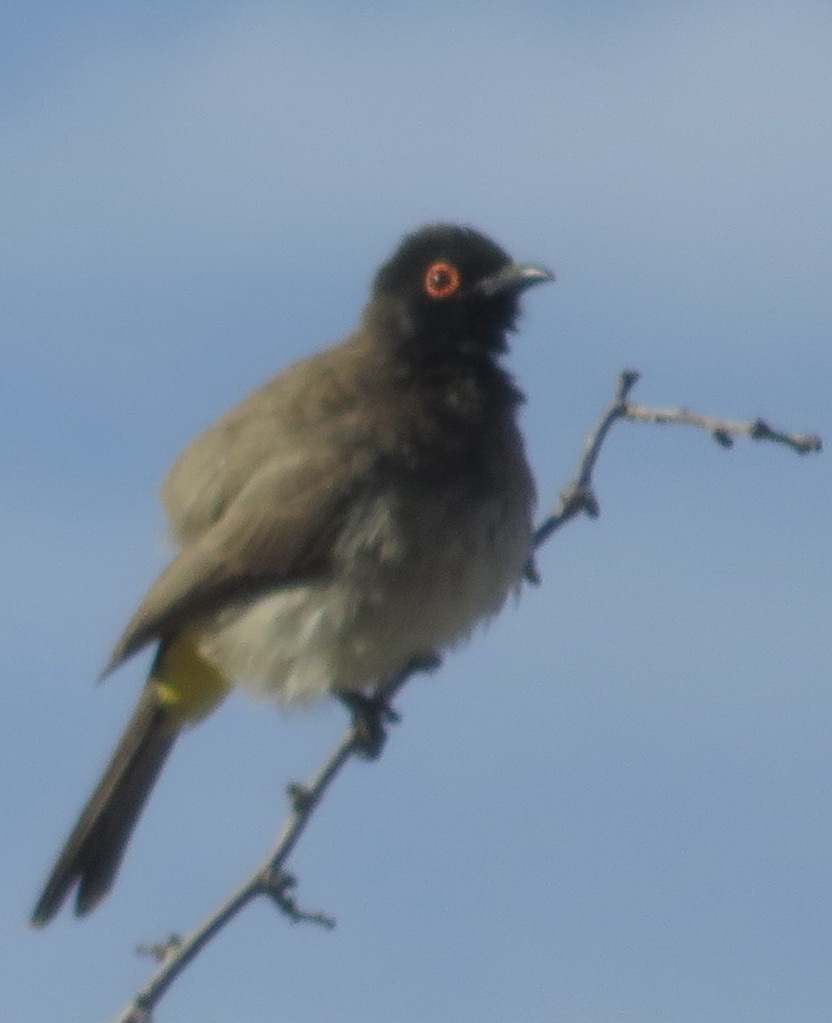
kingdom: Animalia
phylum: Chordata
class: Aves
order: Passeriformes
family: Pycnonotidae
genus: Pycnonotus
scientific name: Pycnonotus nigricans
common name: African red-eyed bulbul
